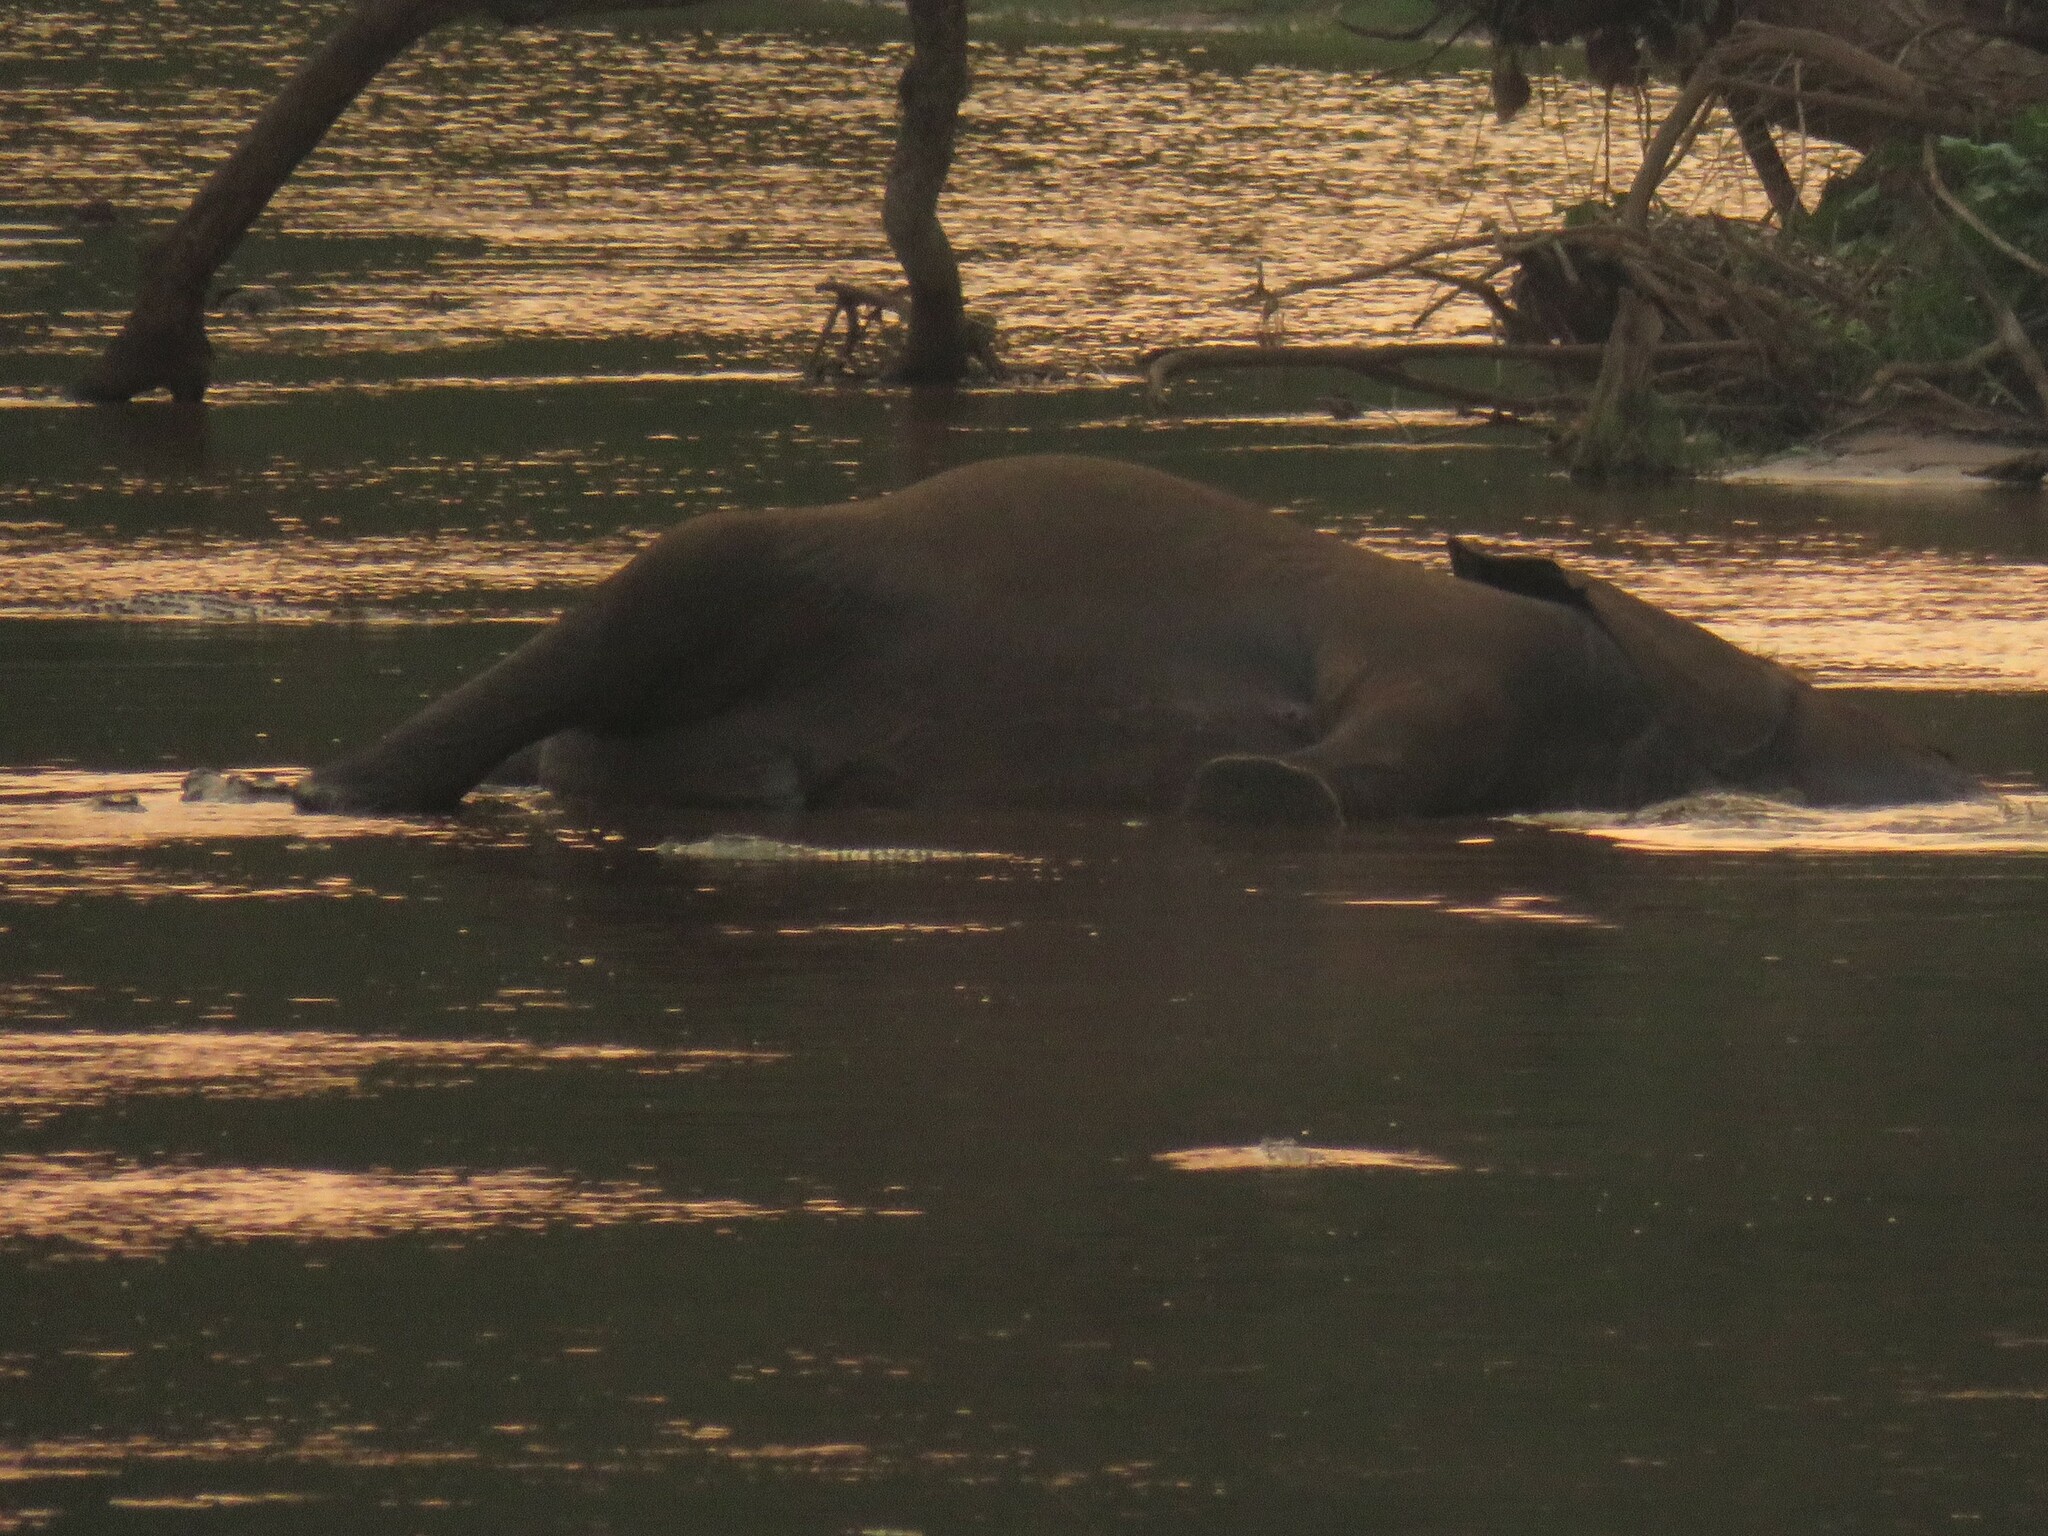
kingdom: Animalia
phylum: Chordata
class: Crocodylia
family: Crocodylidae
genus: Crocodylus
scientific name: Crocodylus niloticus
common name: Nile crocodile
